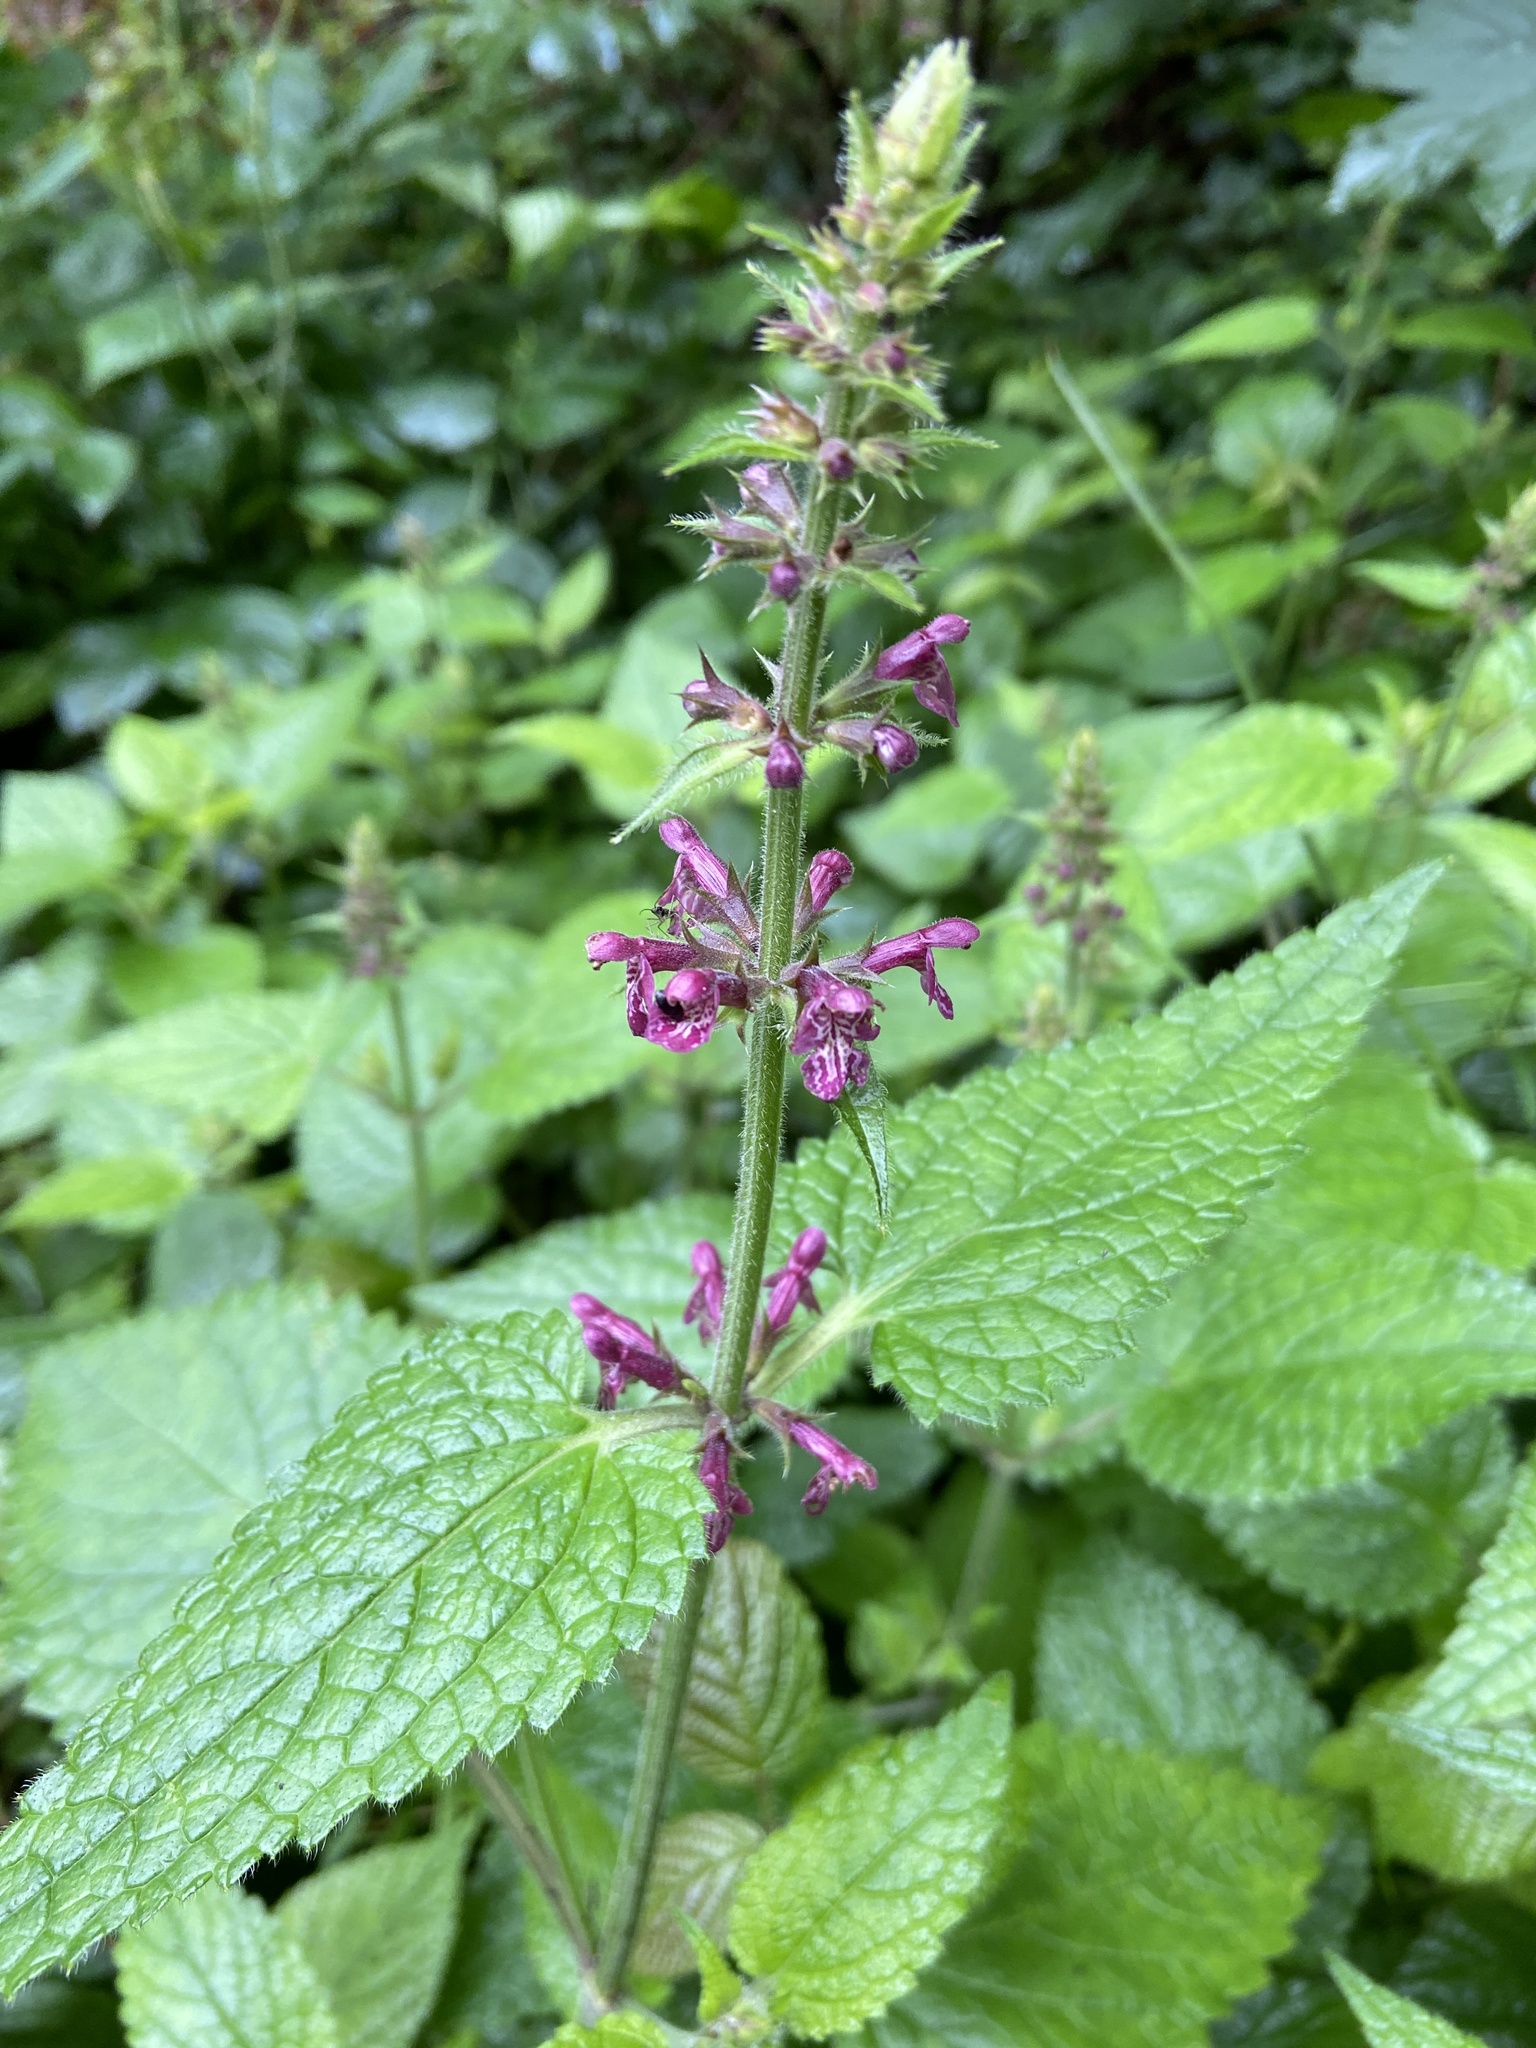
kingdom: Plantae
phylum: Tracheophyta
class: Magnoliopsida
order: Lamiales
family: Lamiaceae
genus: Stachys
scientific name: Stachys sylvatica
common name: Hedge woundwort
